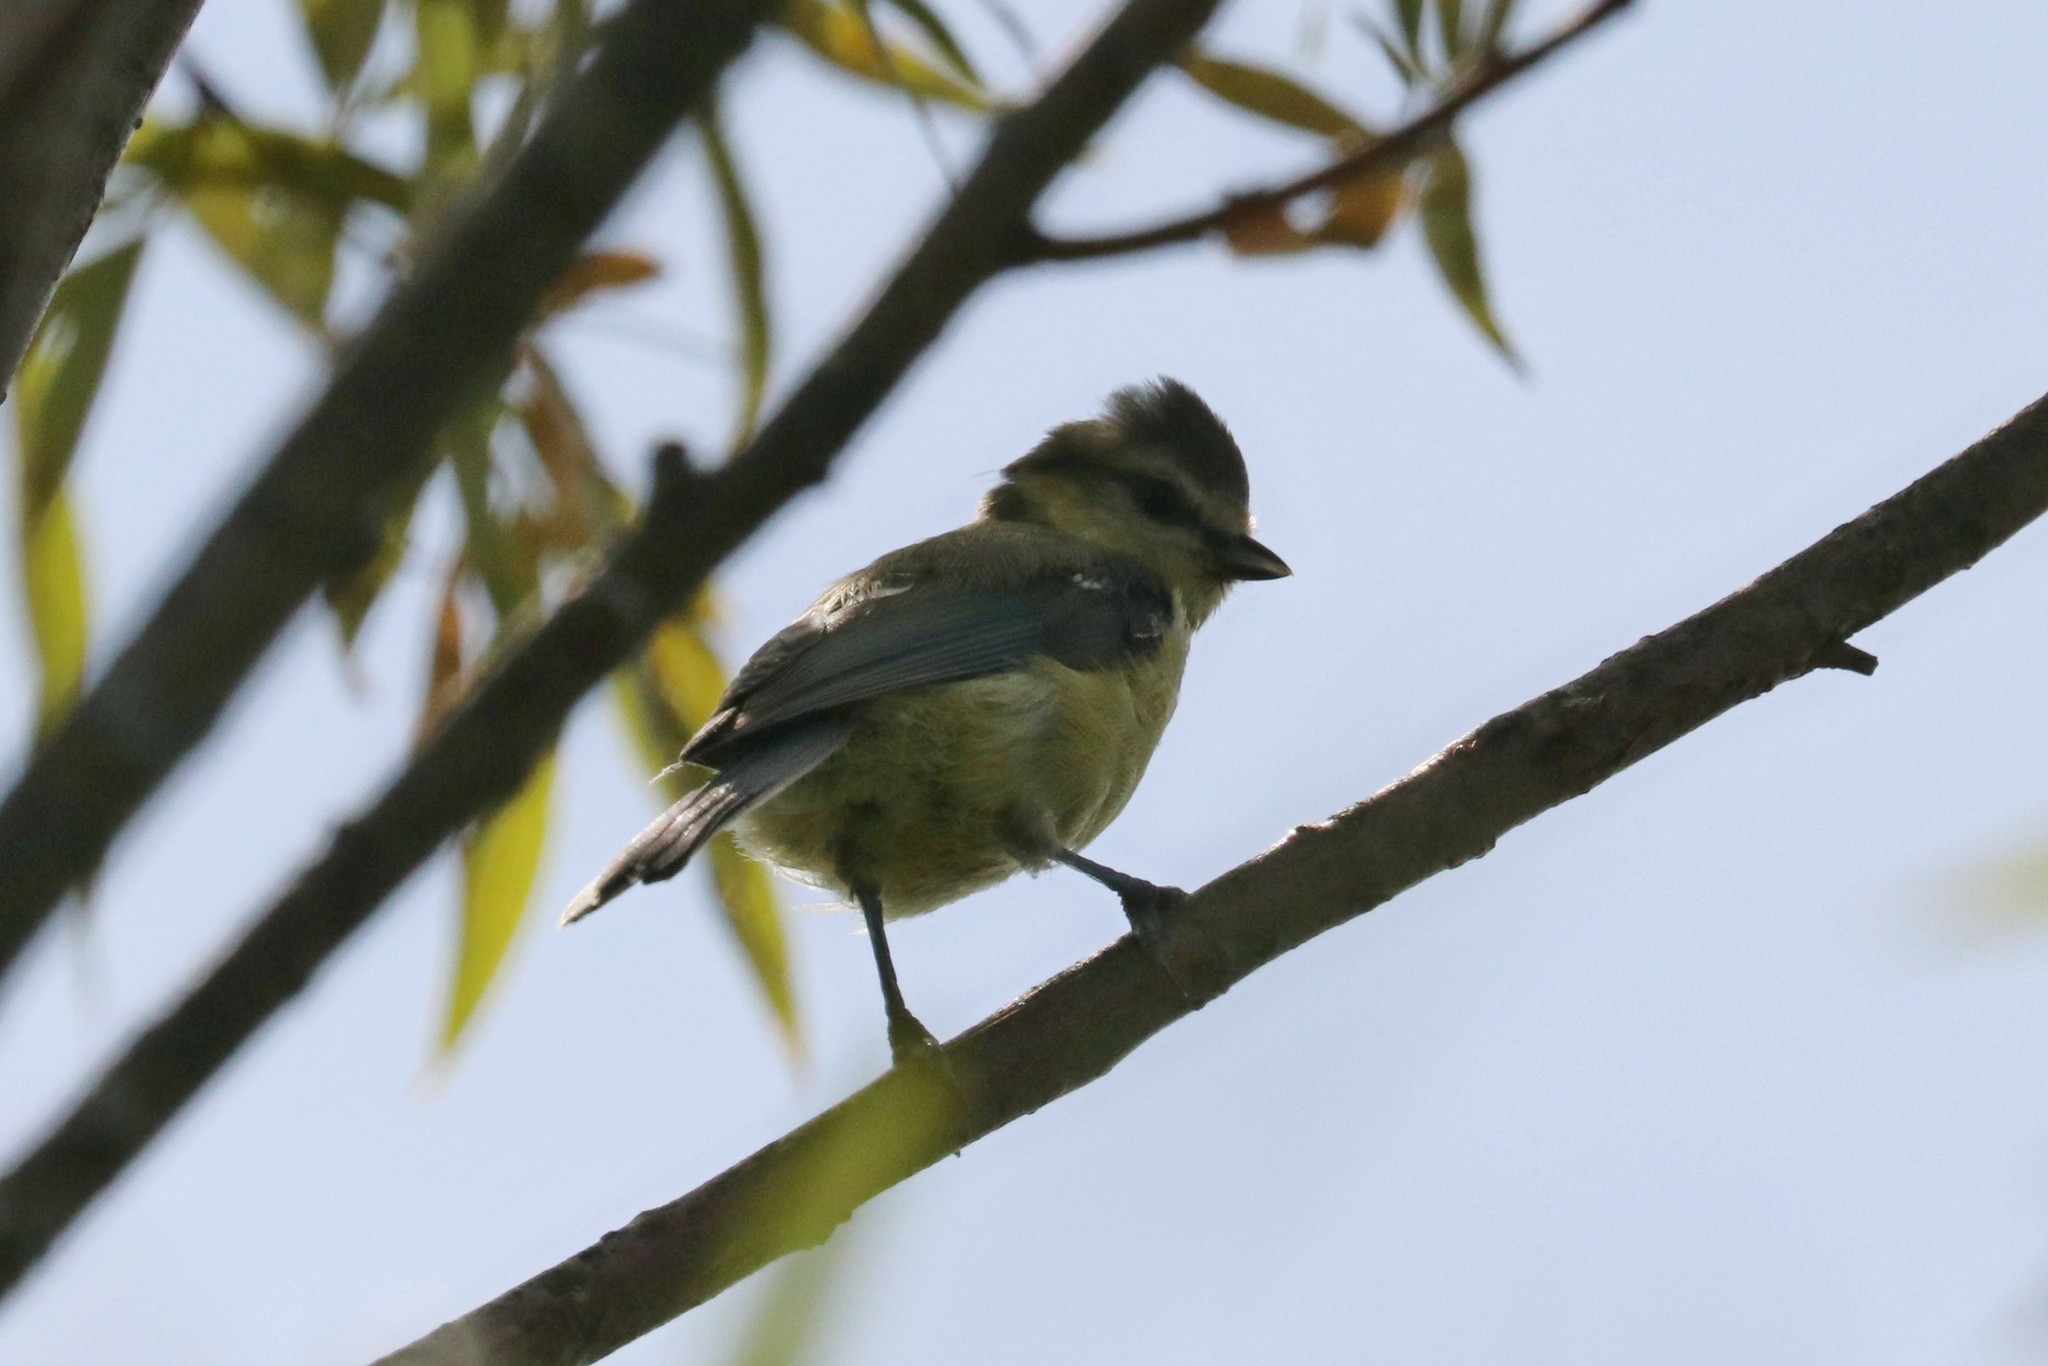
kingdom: Animalia
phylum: Chordata
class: Aves
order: Passeriformes
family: Paridae
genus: Cyanistes
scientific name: Cyanistes caeruleus
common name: Eurasian blue tit
